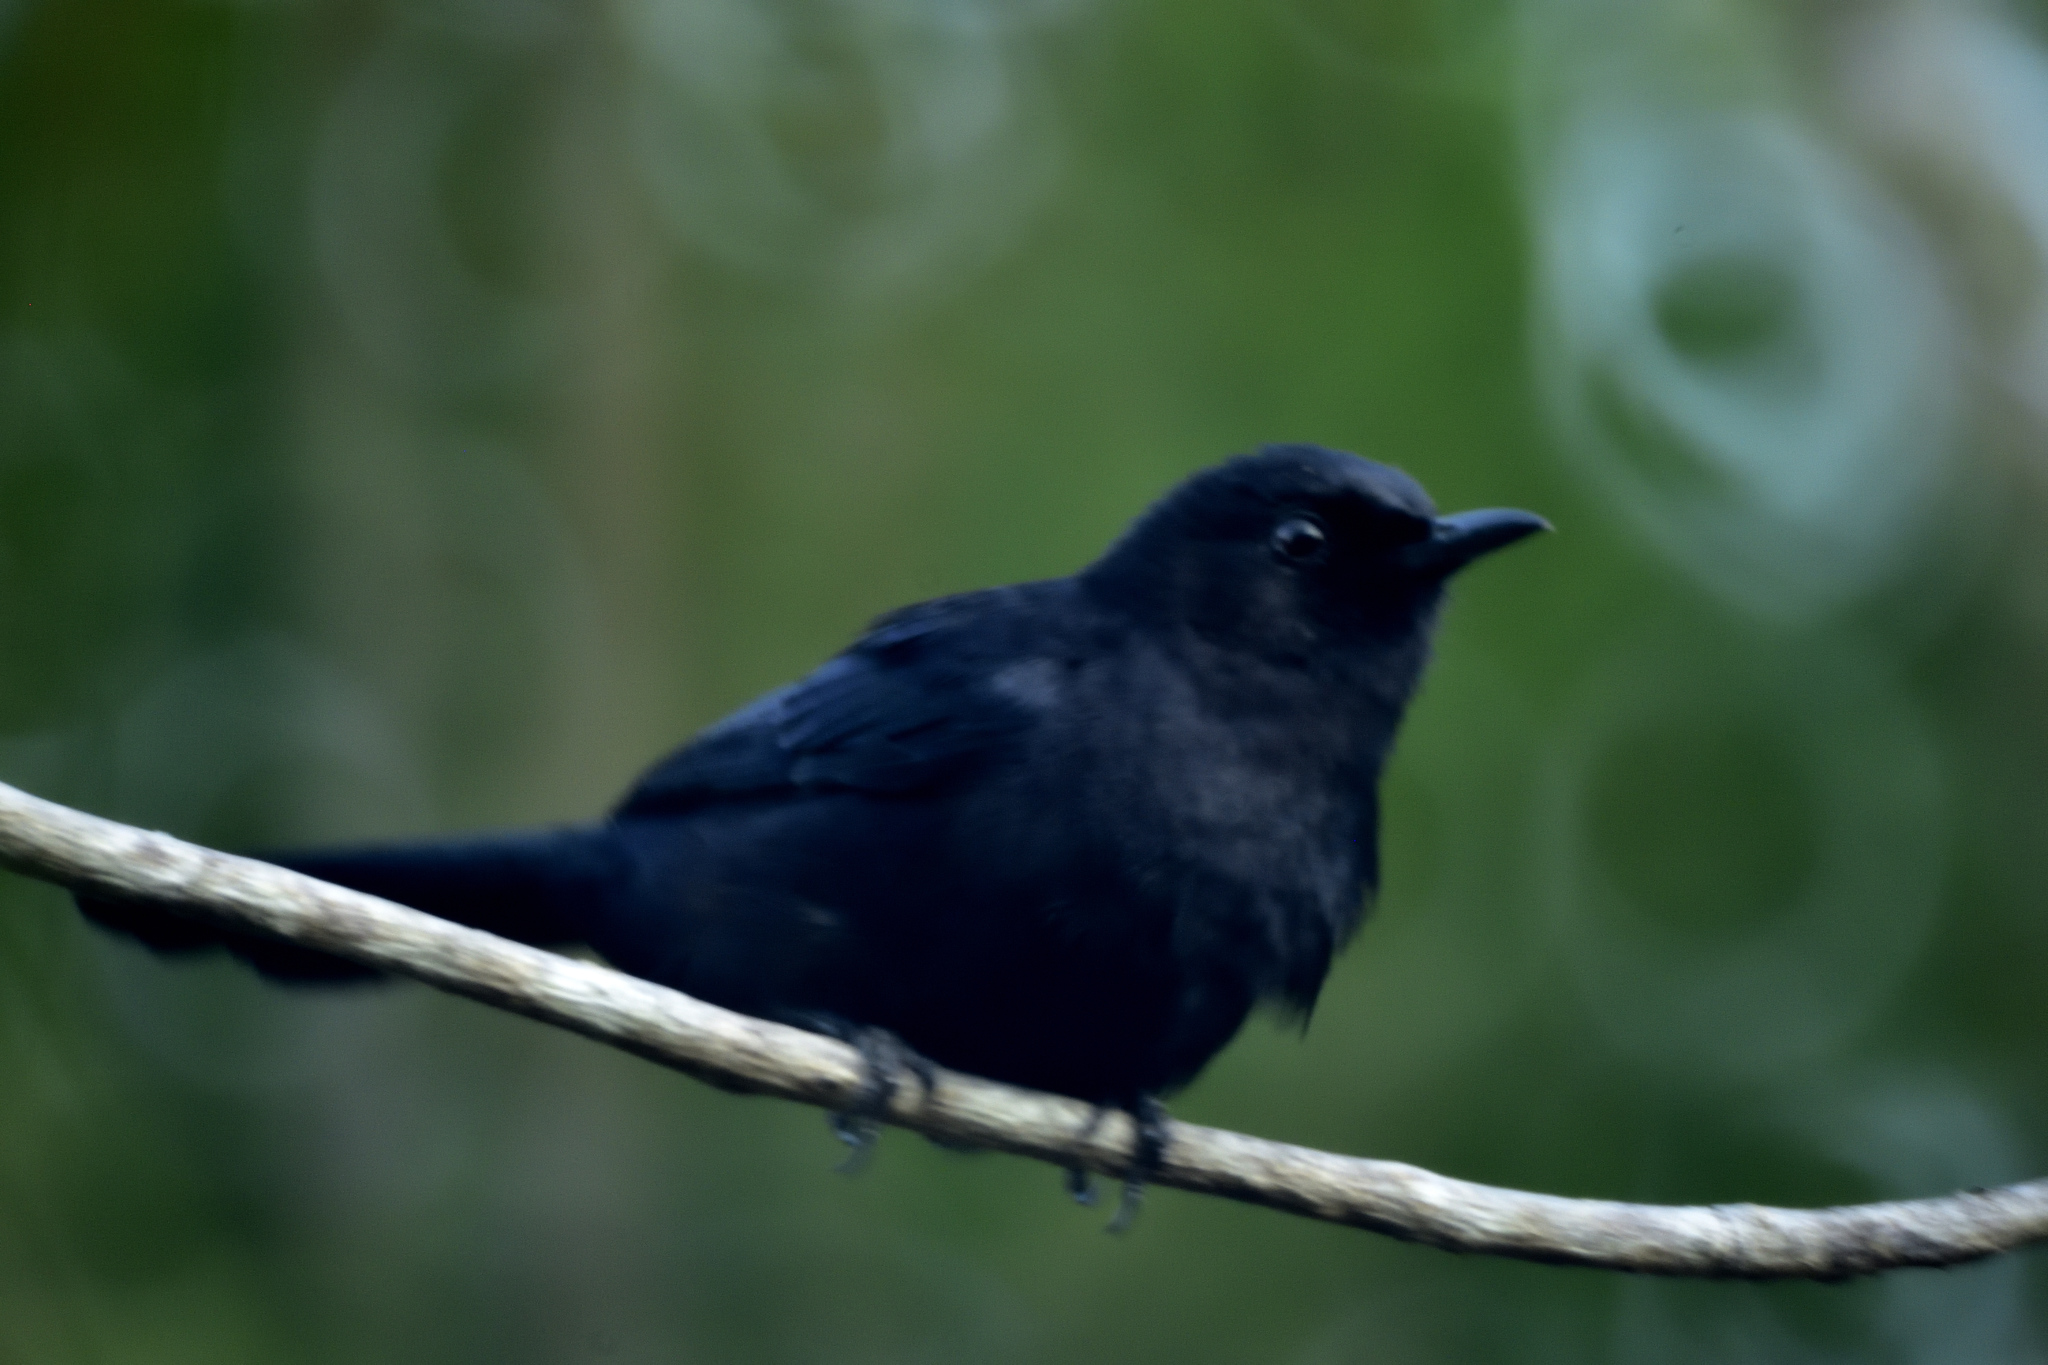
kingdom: Animalia
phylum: Chordata
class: Aves
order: Passeriformes
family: Mimidae
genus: Melanoptila
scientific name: Melanoptila glabrirostris
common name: Black catbird
